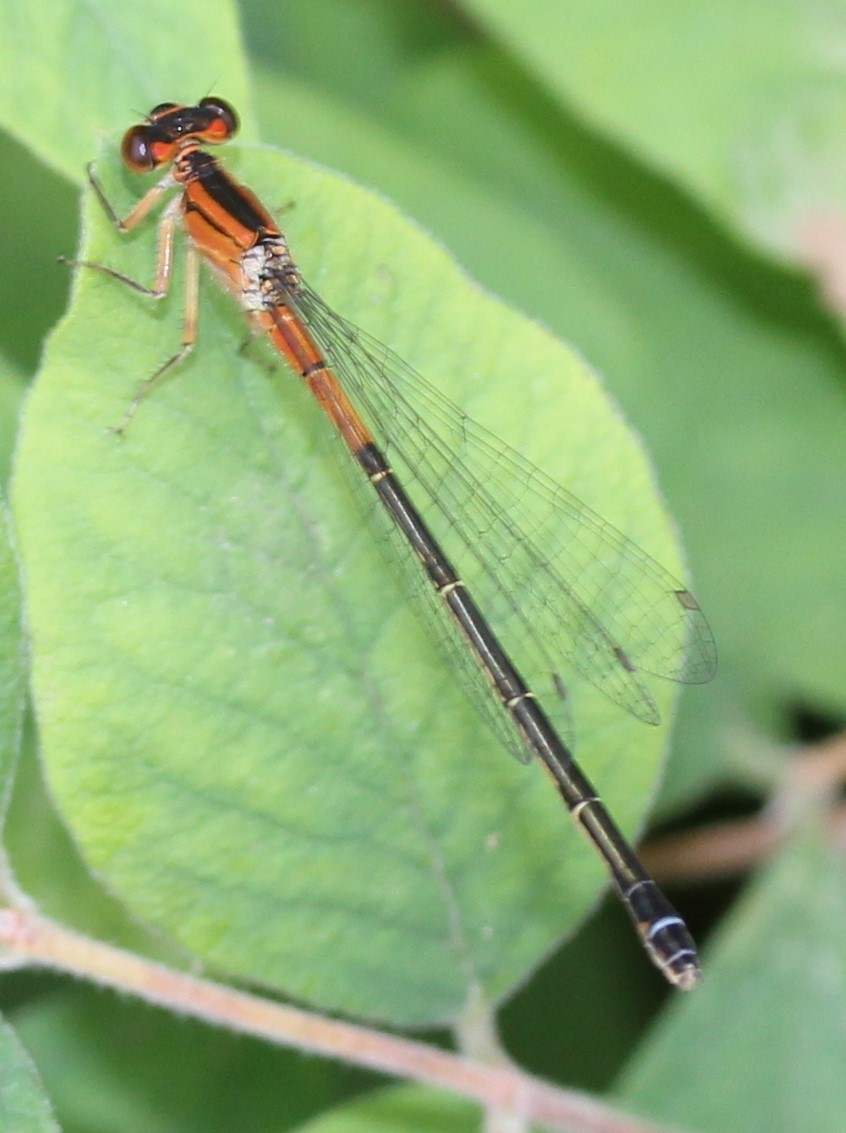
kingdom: Animalia
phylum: Arthropoda
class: Insecta
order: Odonata
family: Coenagrionidae
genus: Ischnura
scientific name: Ischnura verticalis
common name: Eastern forktail
